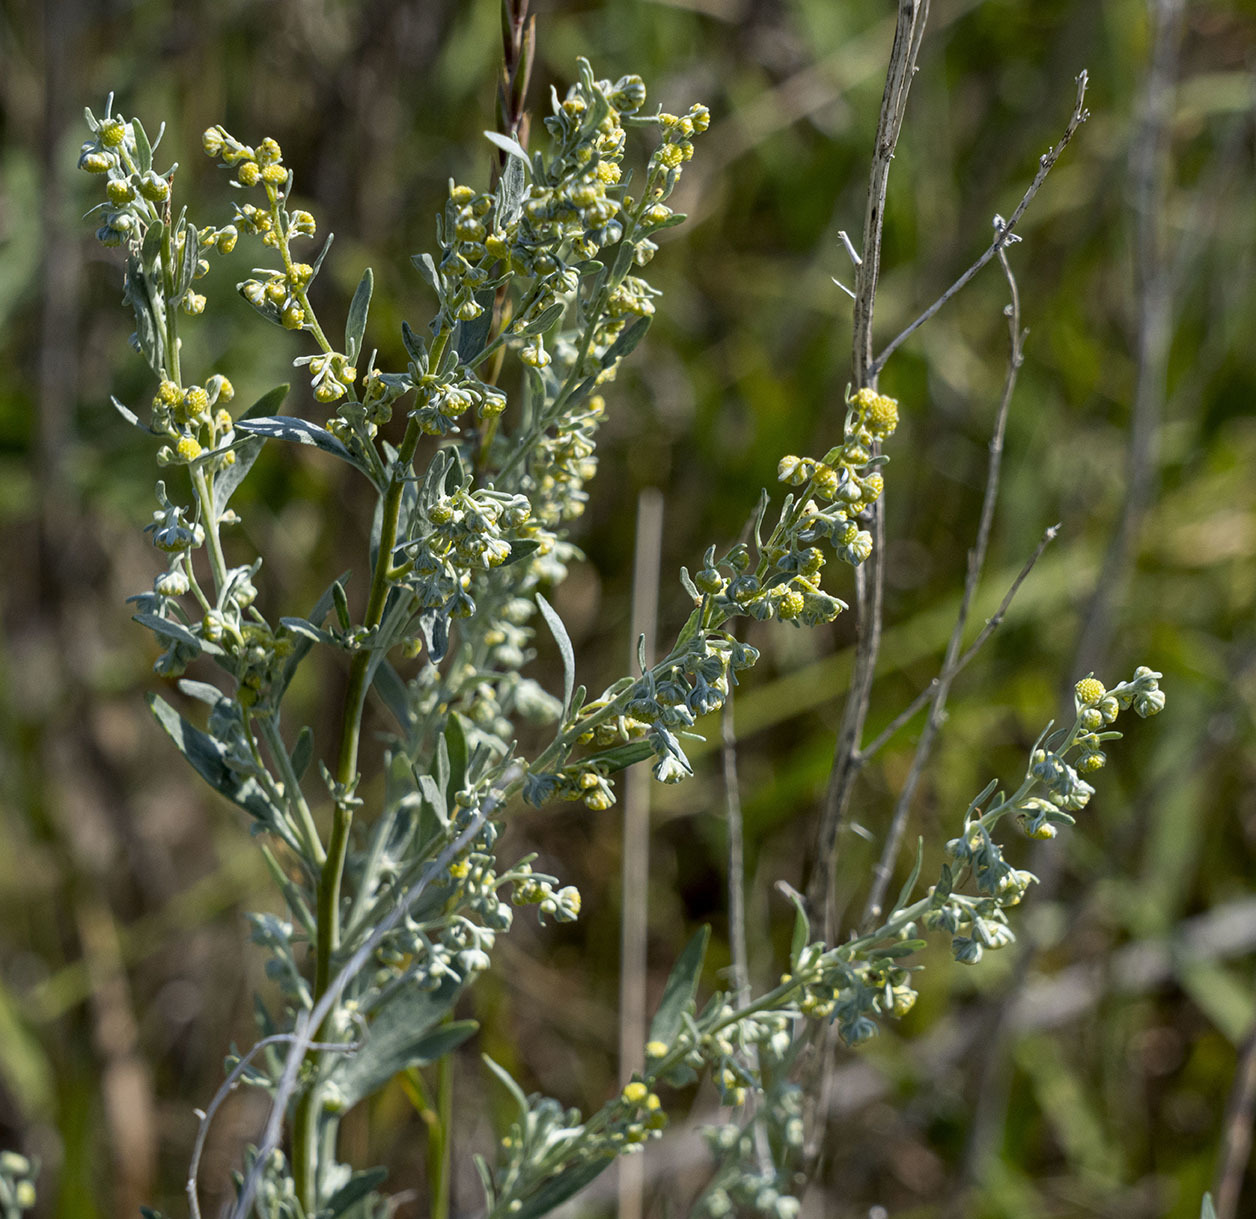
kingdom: Plantae
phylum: Tracheophyta
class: Magnoliopsida
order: Asterales
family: Asteraceae
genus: Artemisia
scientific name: Artemisia ludoviciana
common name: Western mugwort
